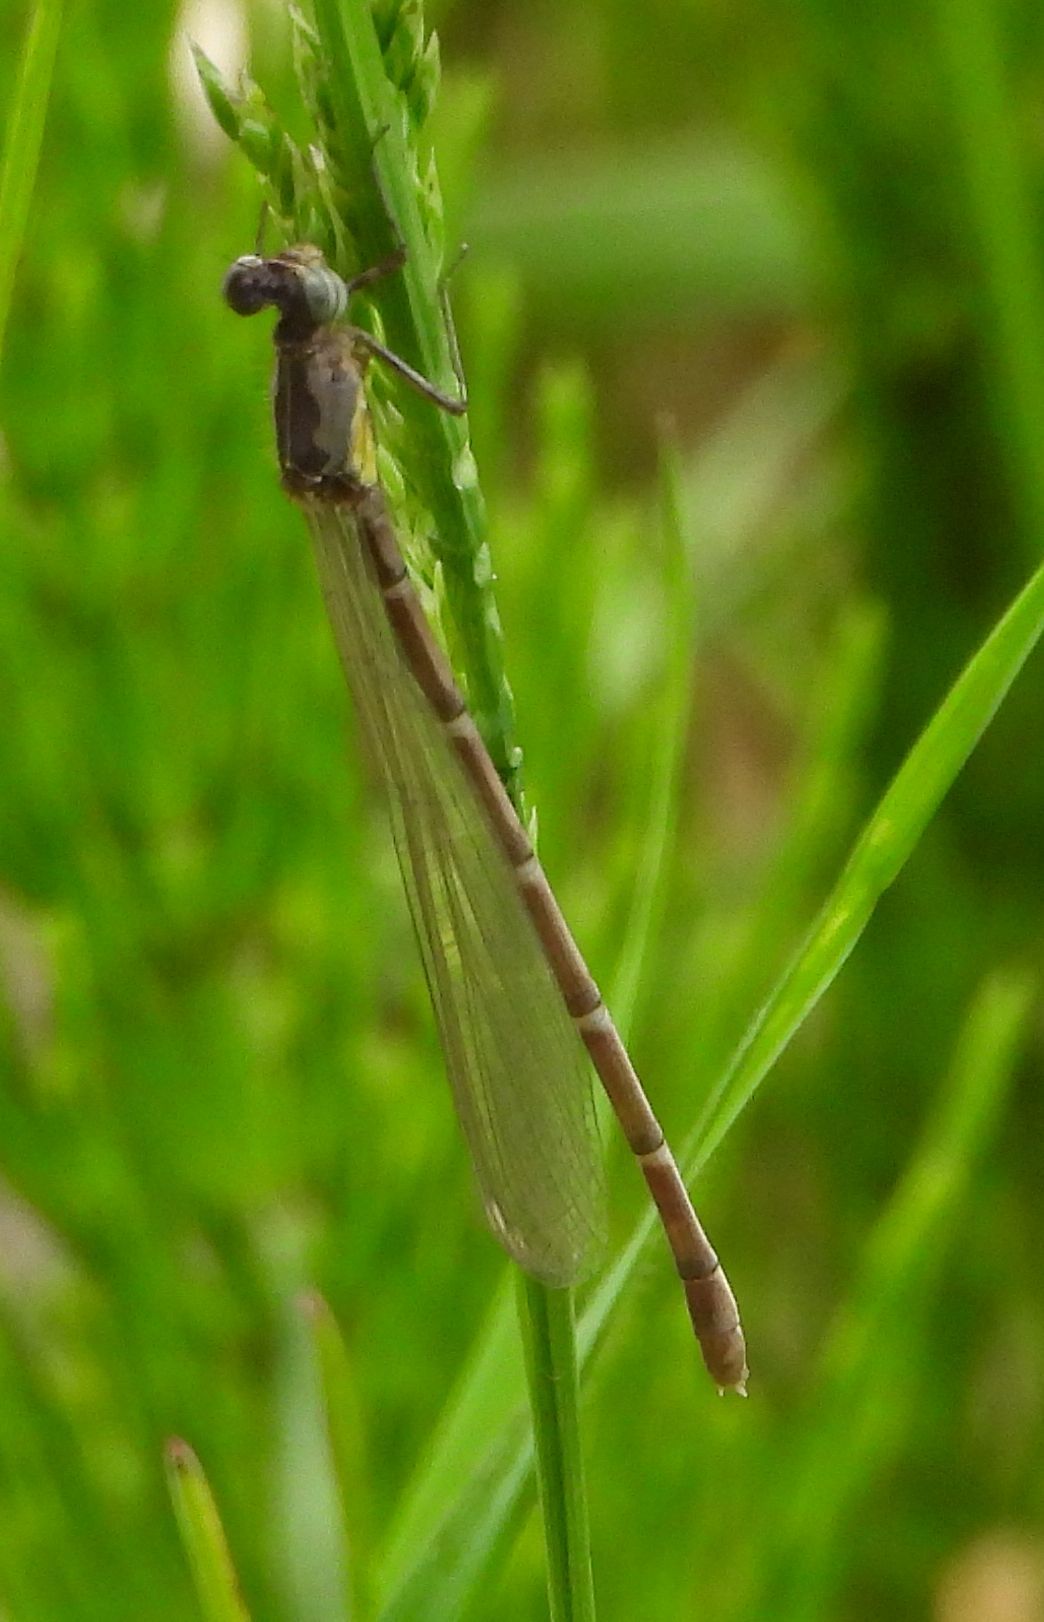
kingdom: Animalia
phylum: Arthropoda
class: Insecta
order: Odonata
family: Coenagrionidae
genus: Chromagrion
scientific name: Chromagrion conditum
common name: Aurora damsel
